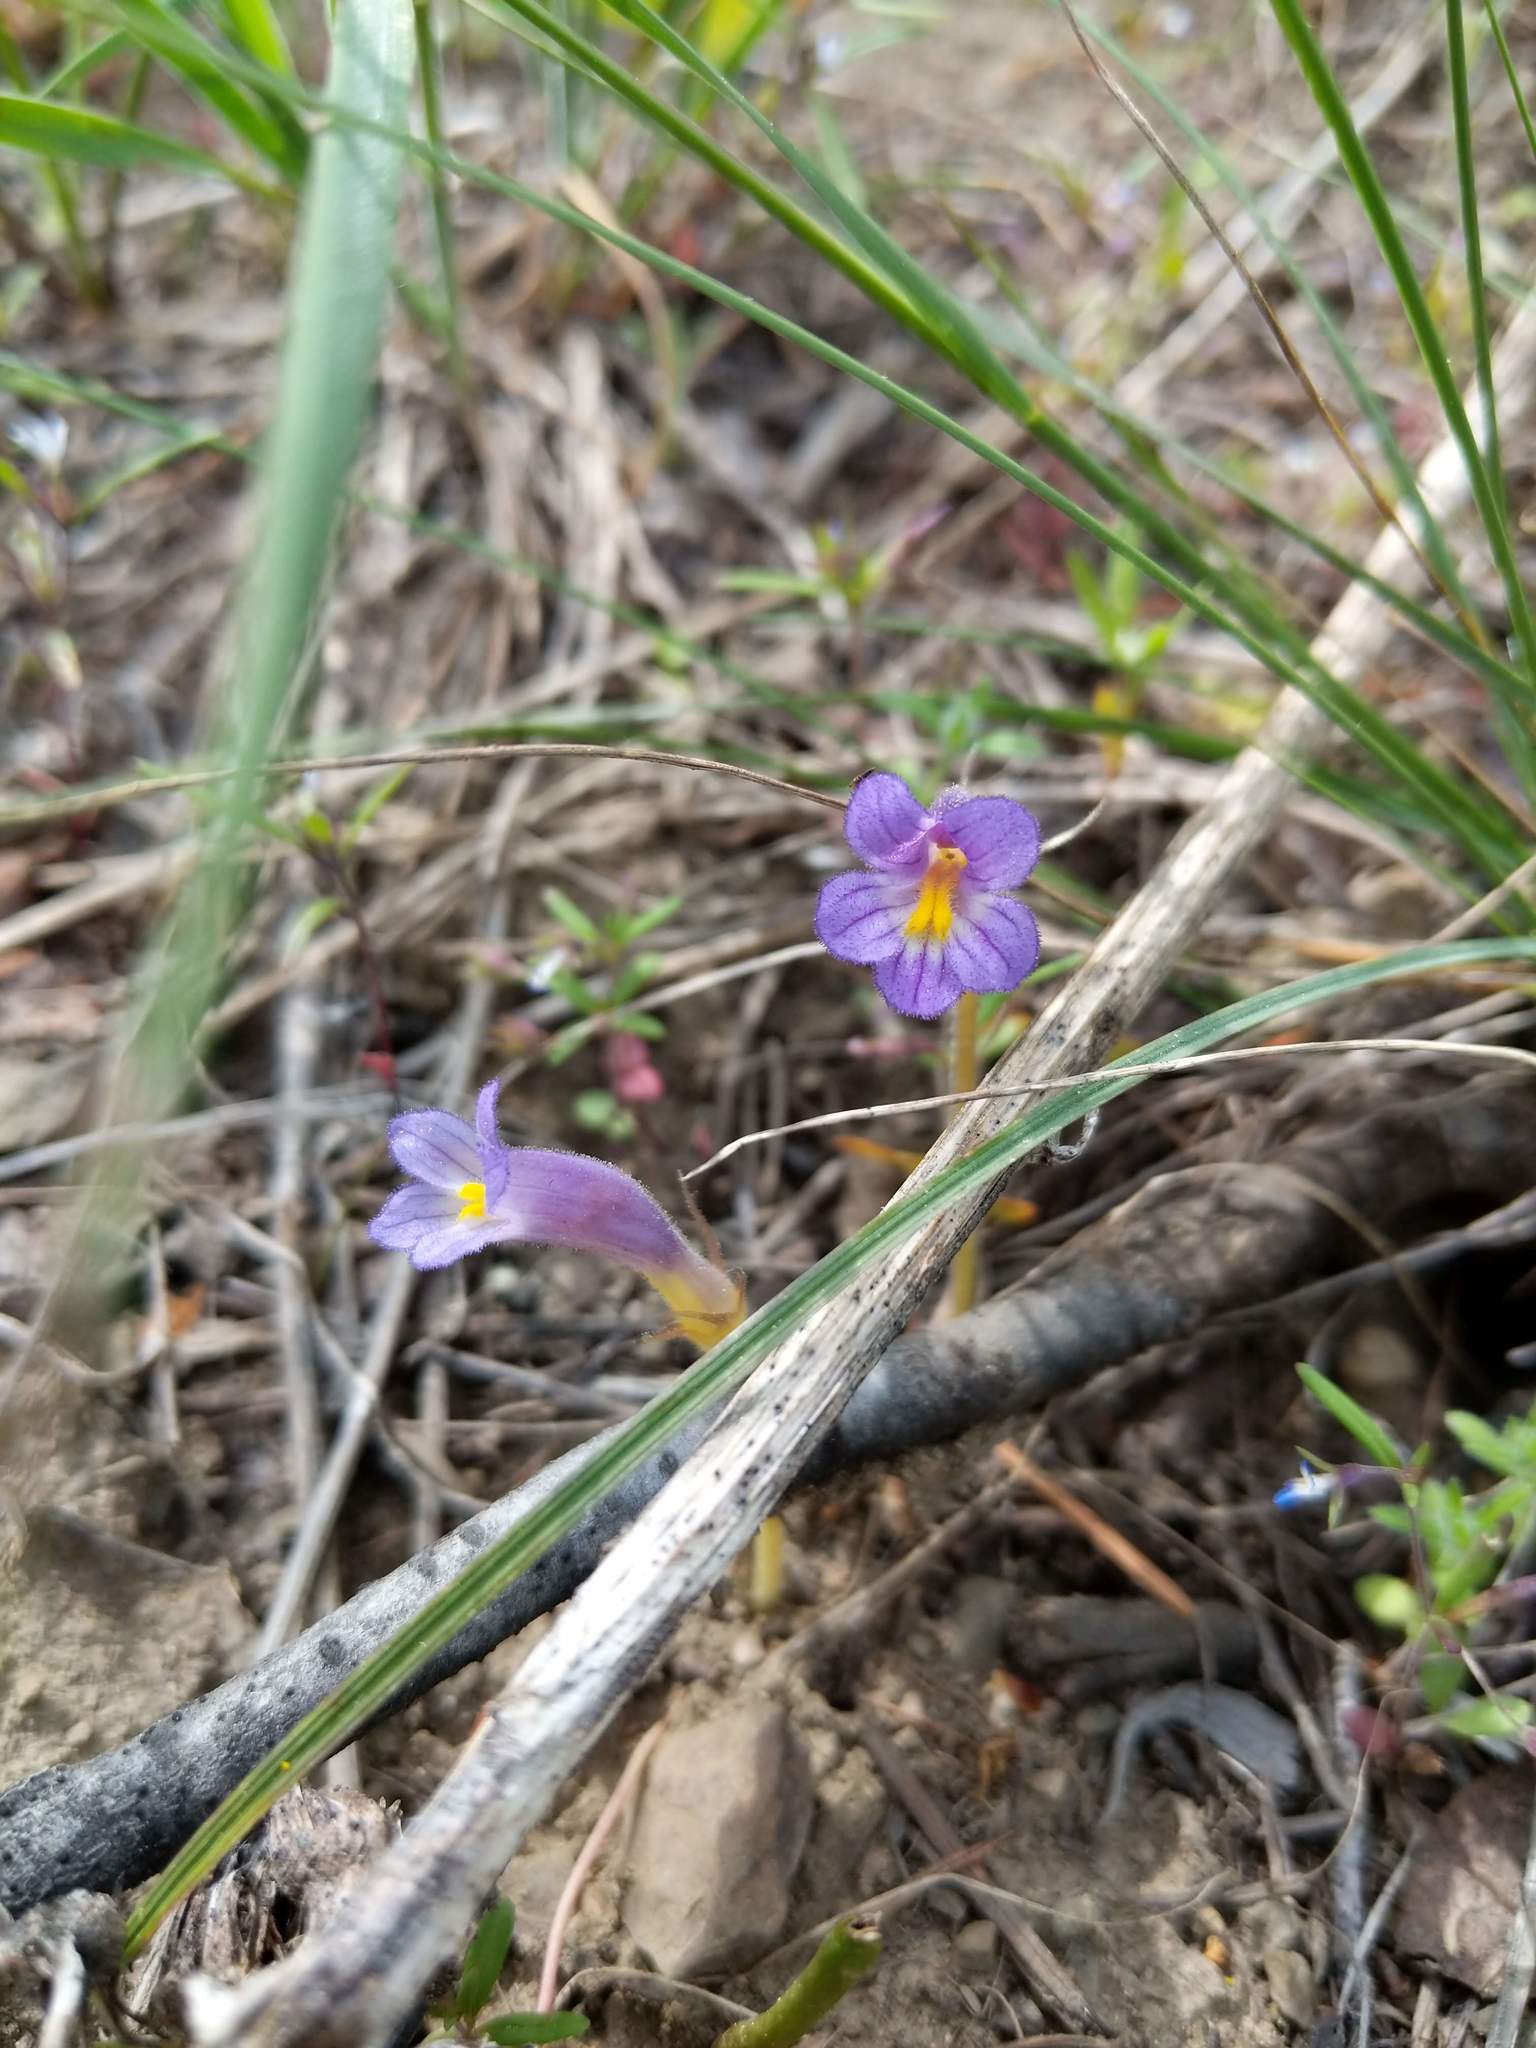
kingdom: Plantae
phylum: Tracheophyta
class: Magnoliopsida
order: Lamiales
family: Orobanchaceae
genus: Aphyllon
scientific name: Aphyllon uniflorum
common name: One-flowered broomrape
